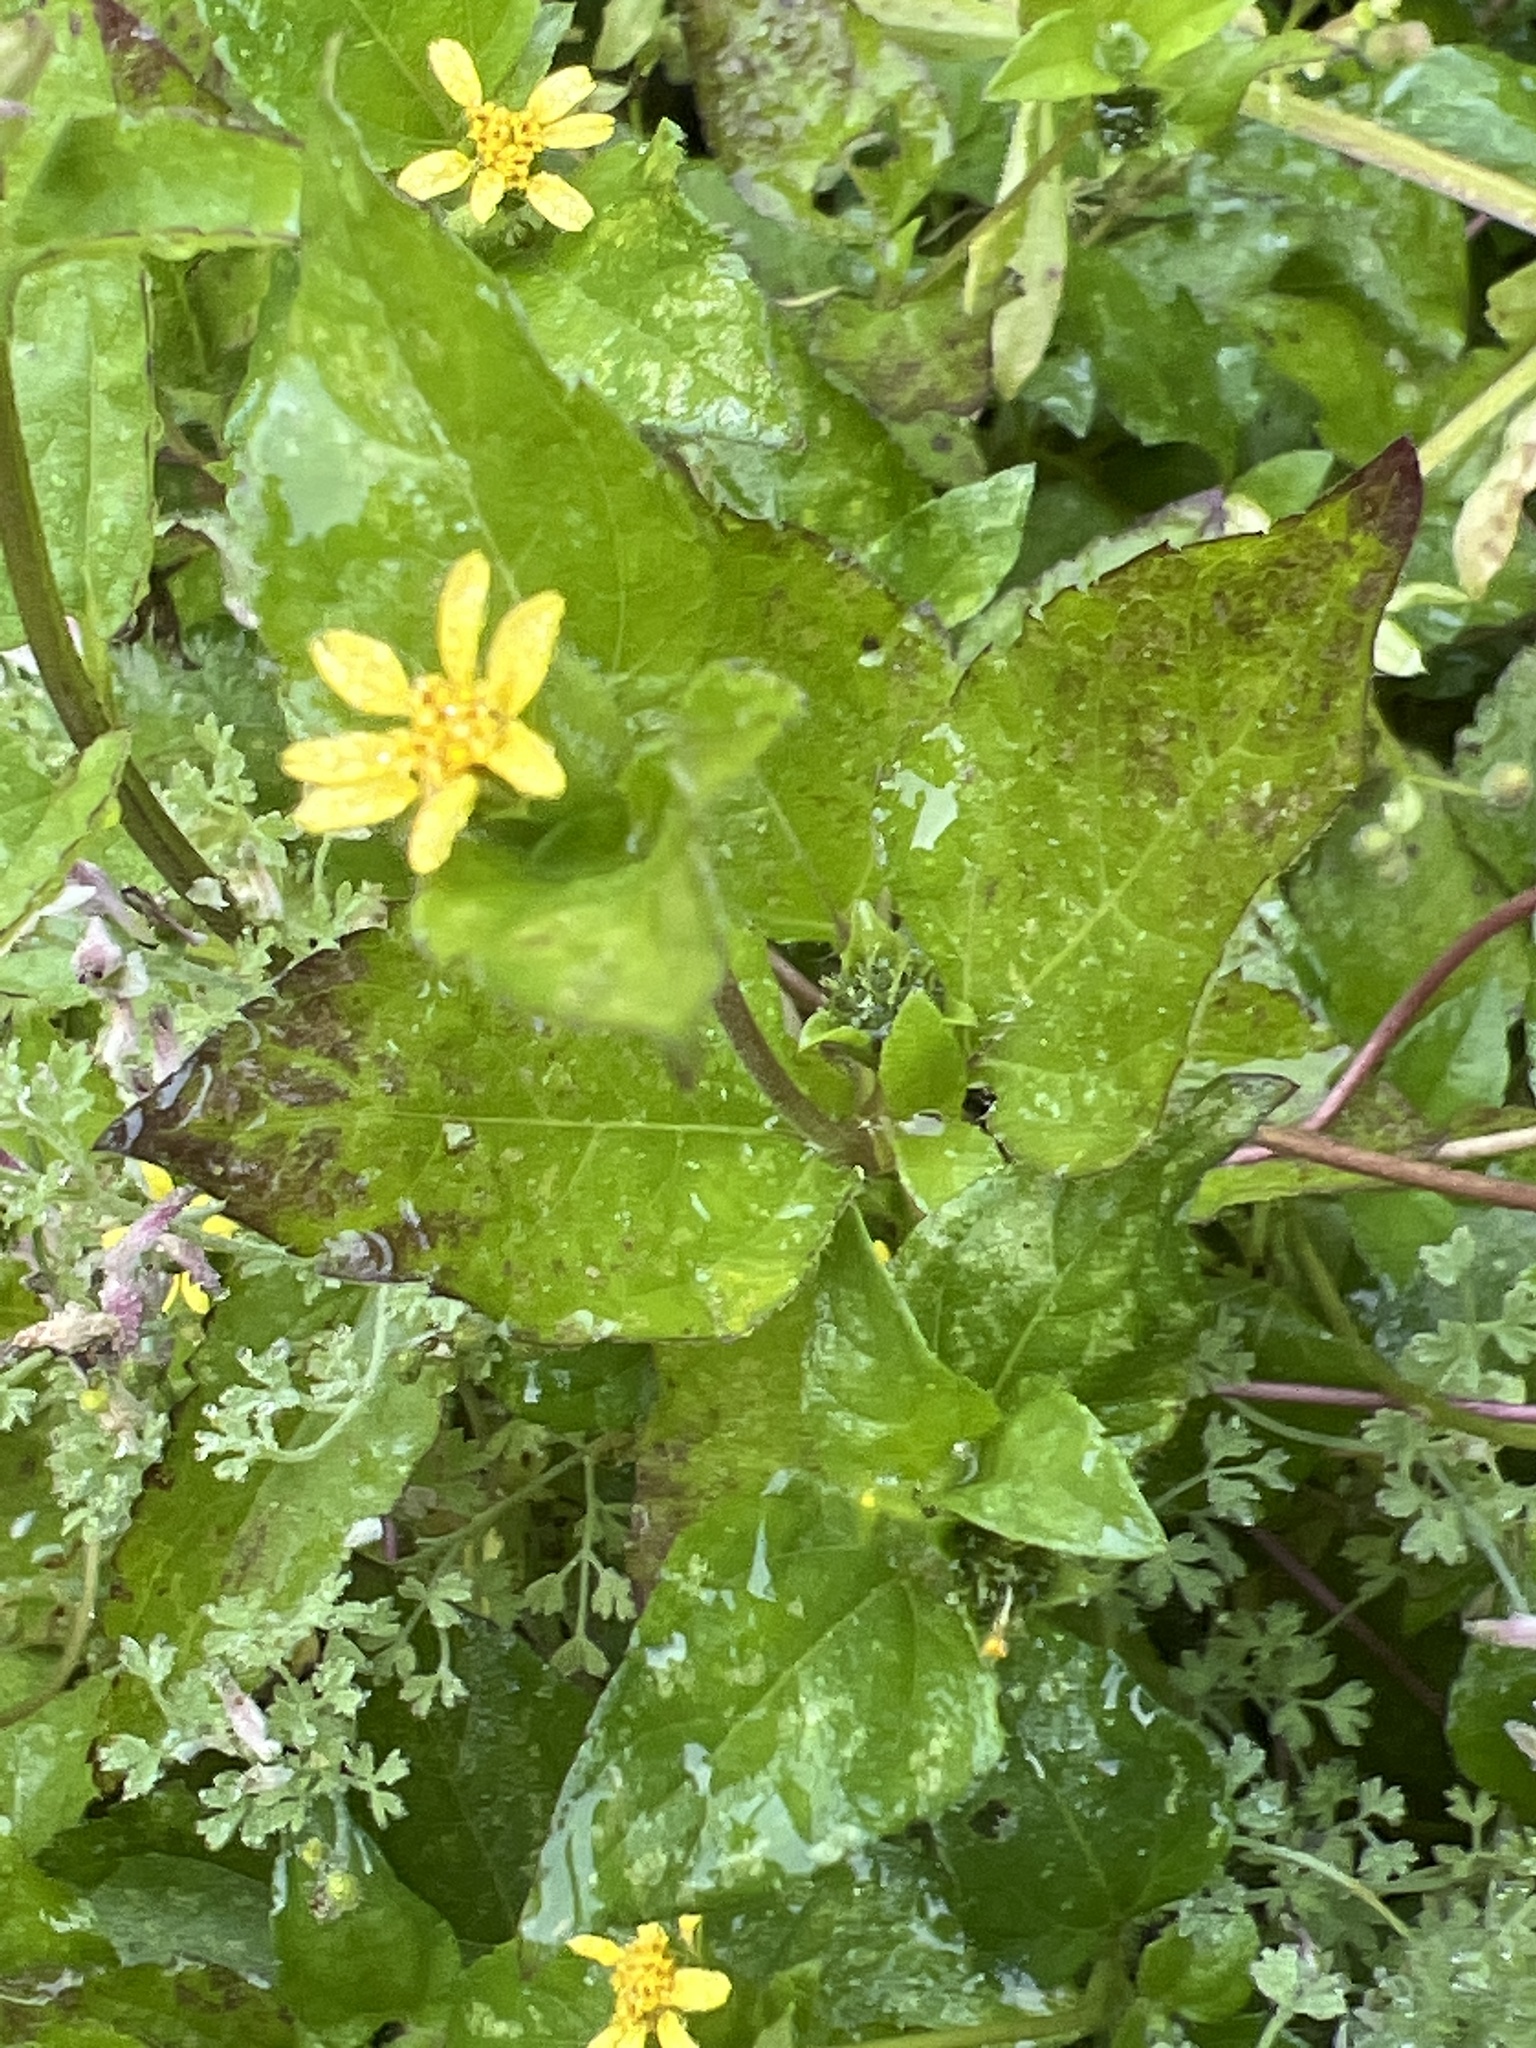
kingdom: Plantae
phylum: Tracheophyta
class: Magnoliopsida
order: Asterales
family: Asteraceae
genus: Calyptocarpus
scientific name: Calyptocarpus vialis
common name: Straggler daisy
